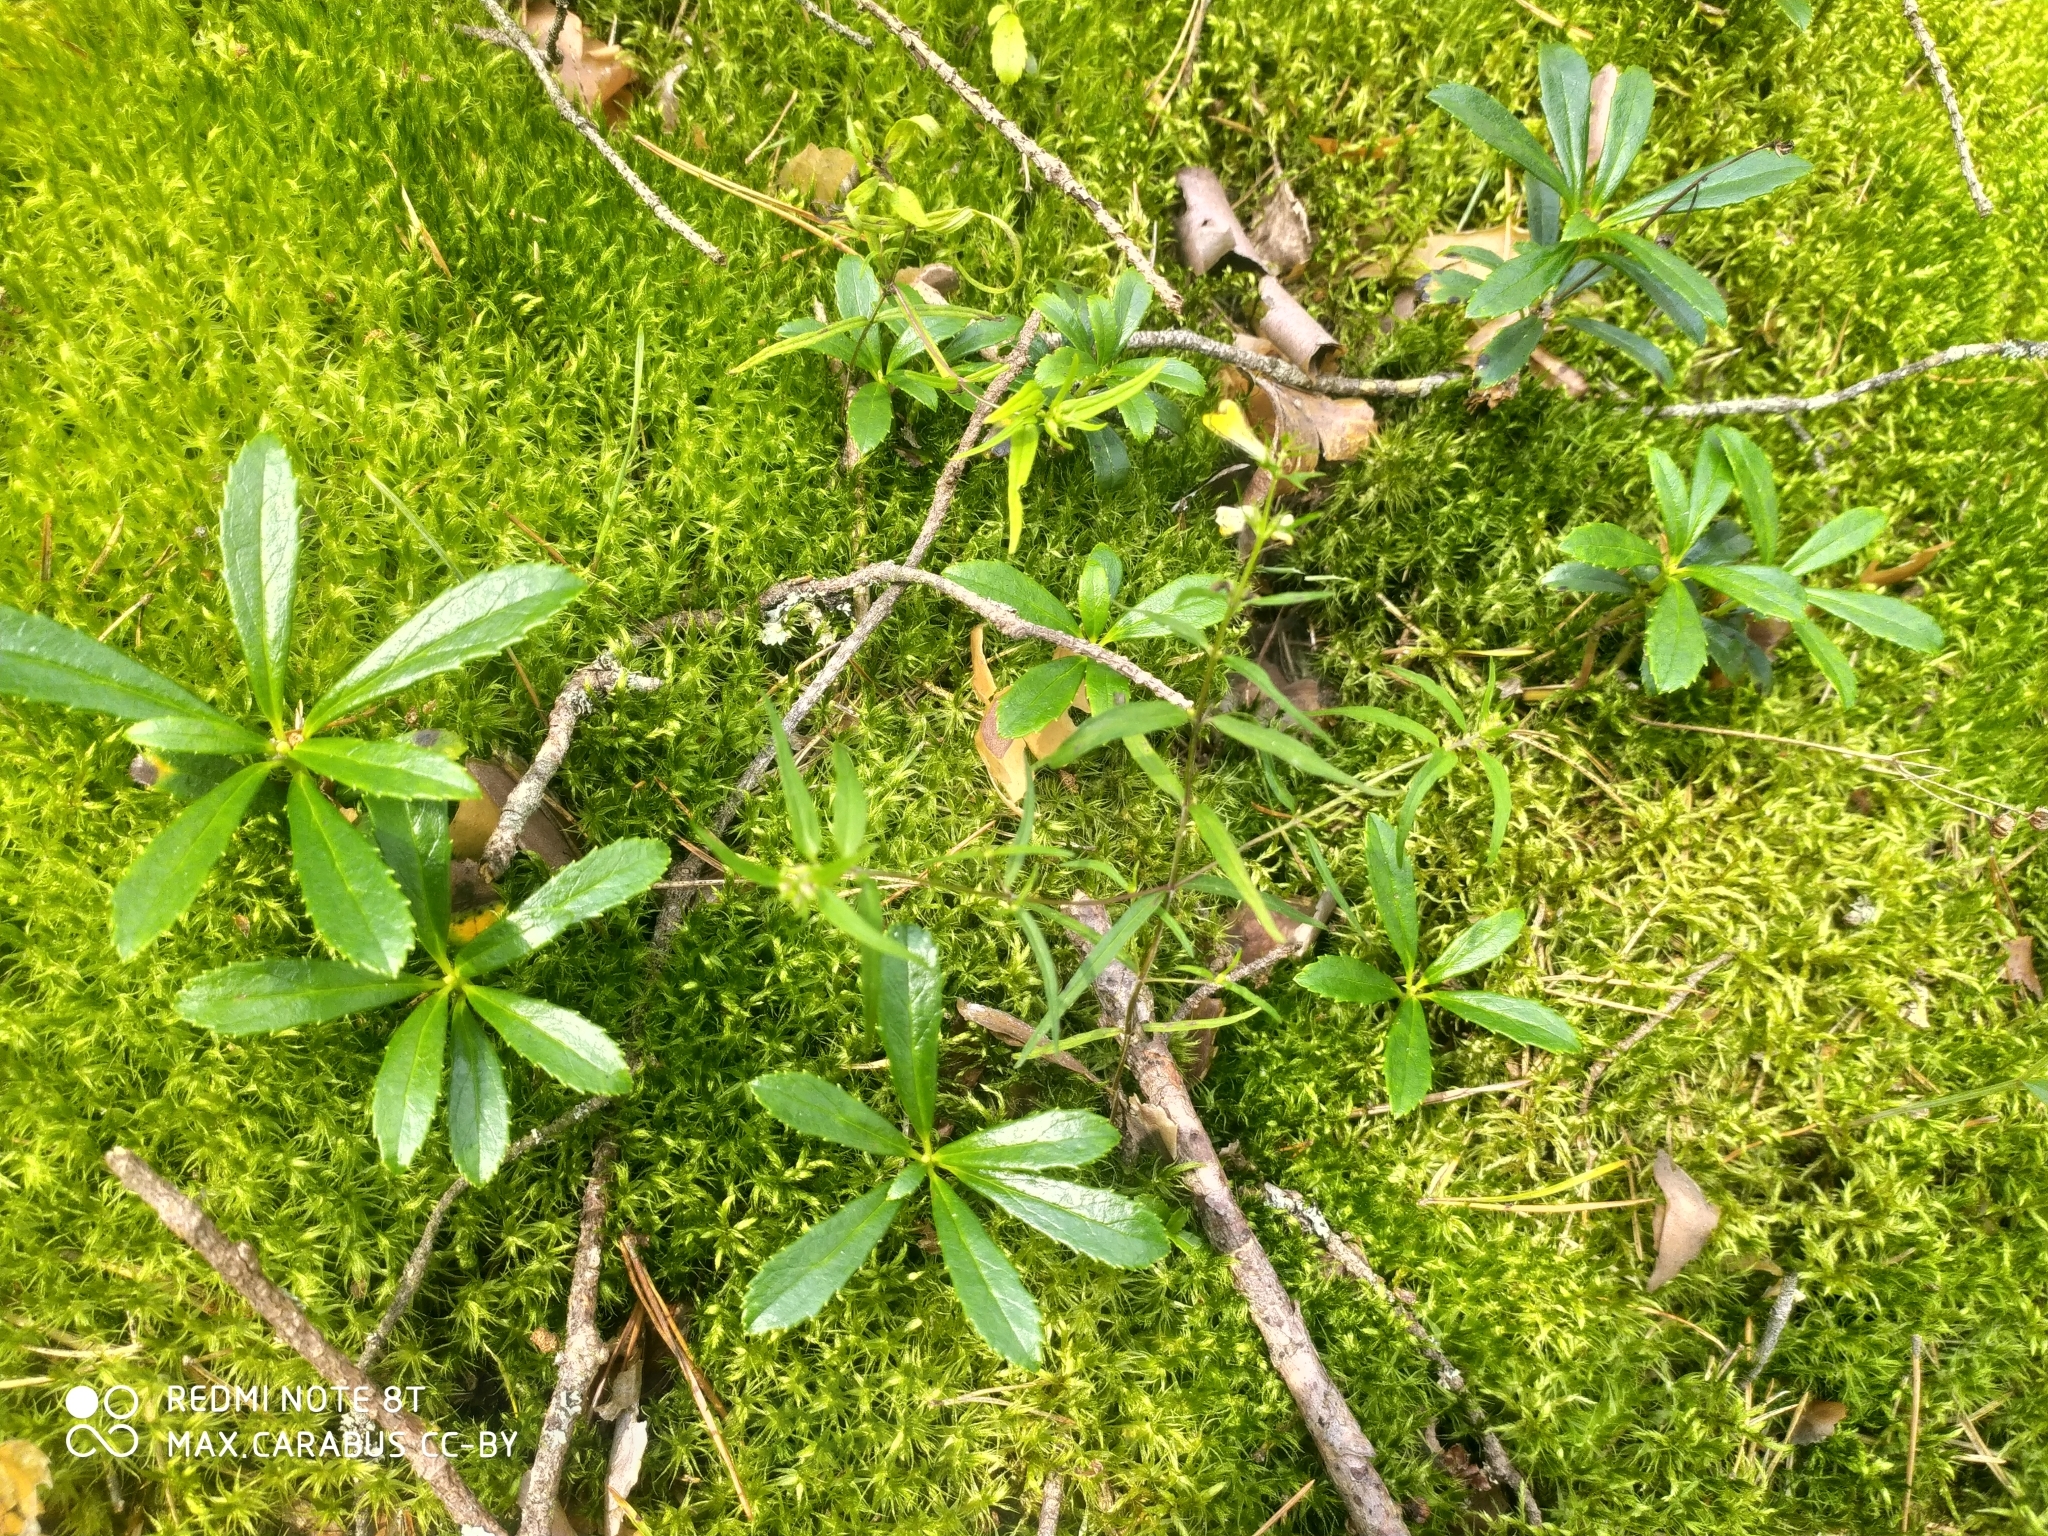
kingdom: Plantae
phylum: Tracheophyta
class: Magnoliopsida
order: Ericales
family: Ericaceae
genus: Chimaphila
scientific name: Chimaphila umbellata
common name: Pipsissewa
